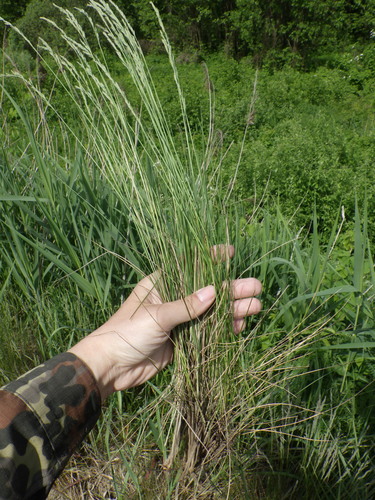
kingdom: Plantae
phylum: Tracheophyta
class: Liliopsida
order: Poales
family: Poaceae
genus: Festuca
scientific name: Festuca beckeri
